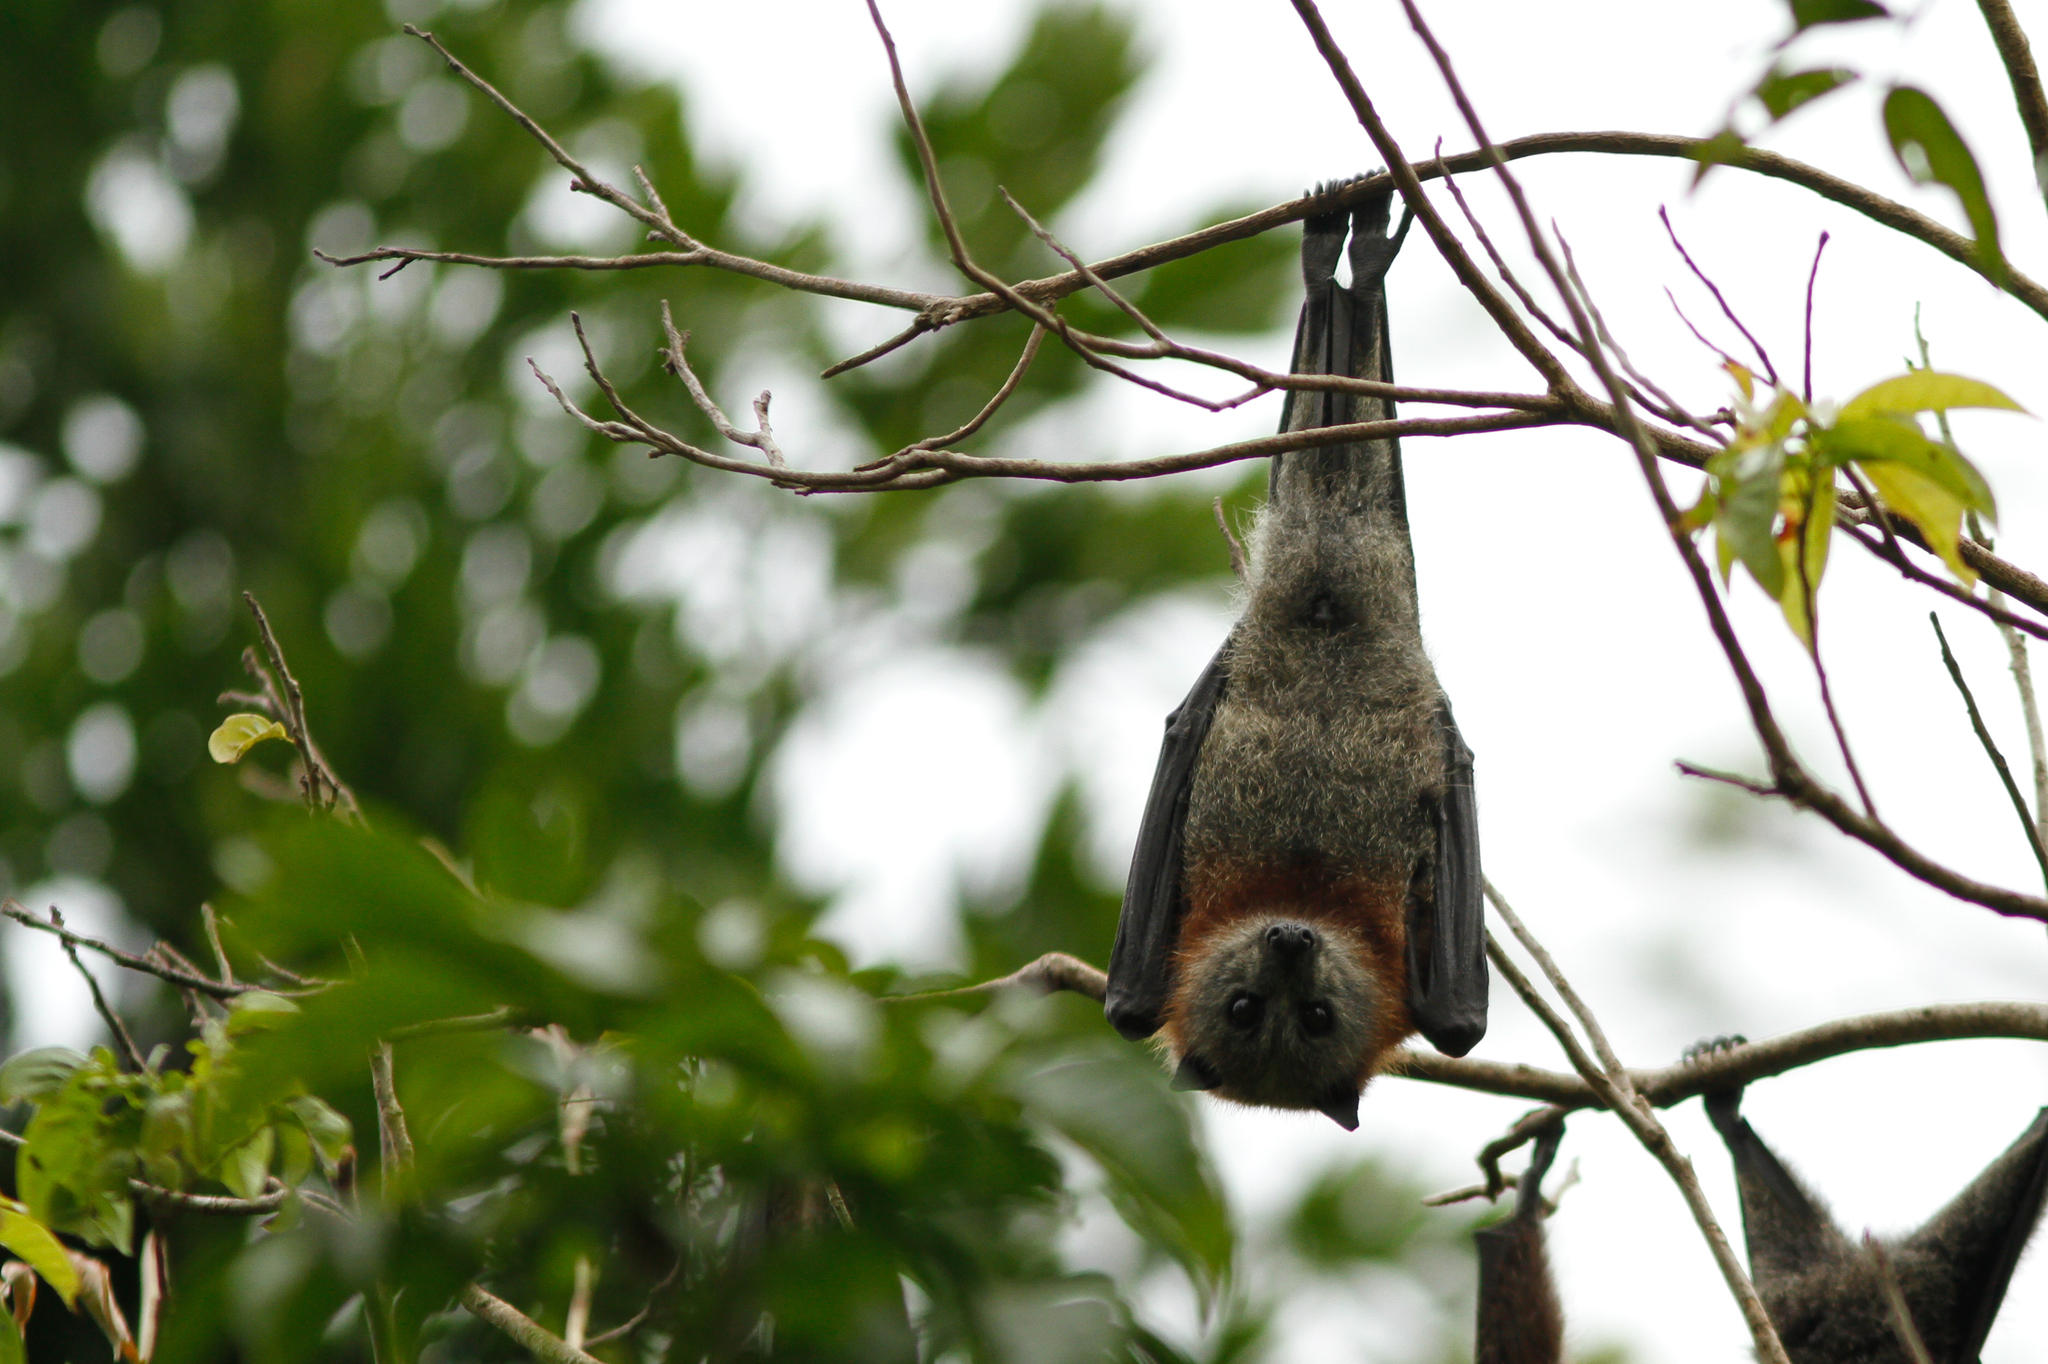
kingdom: Animalia
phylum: Chordata
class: Mammalia
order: Chiroptera
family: Pteropodidae
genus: Pteropus
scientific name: Pteropus poliocephalus
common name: Gray-headed flying fox
